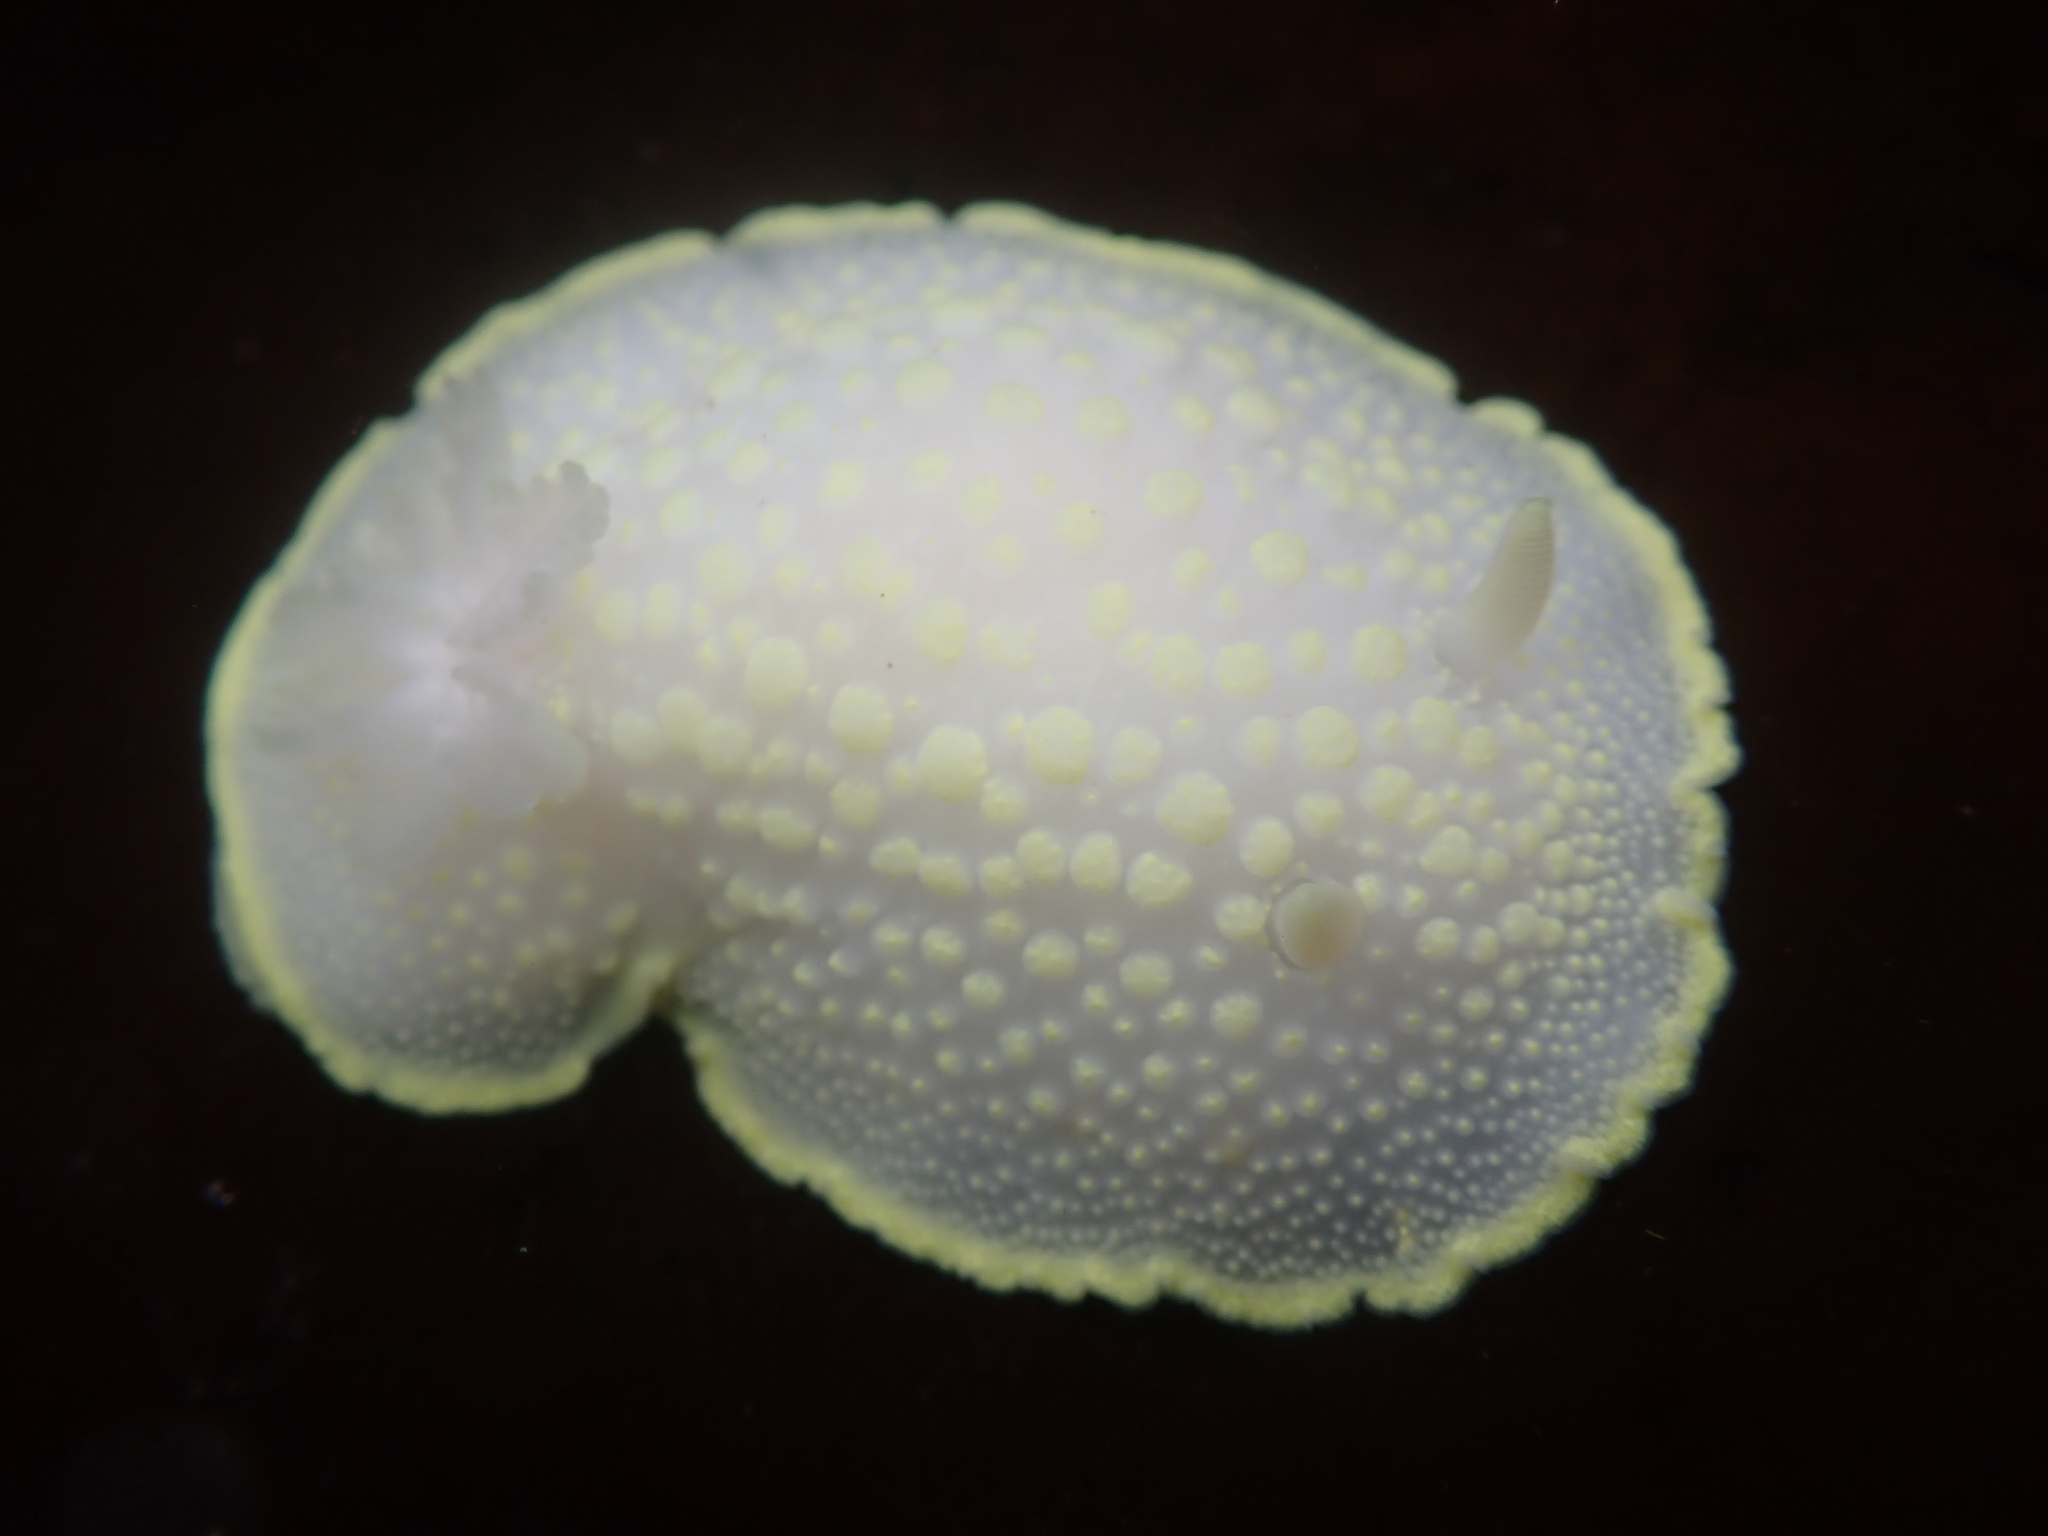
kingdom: Animalia
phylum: Mollusca
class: Gastropoda
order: Nudibranchia
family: Cadlinidae
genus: Cadlina
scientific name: Cadlina luteomarginata
